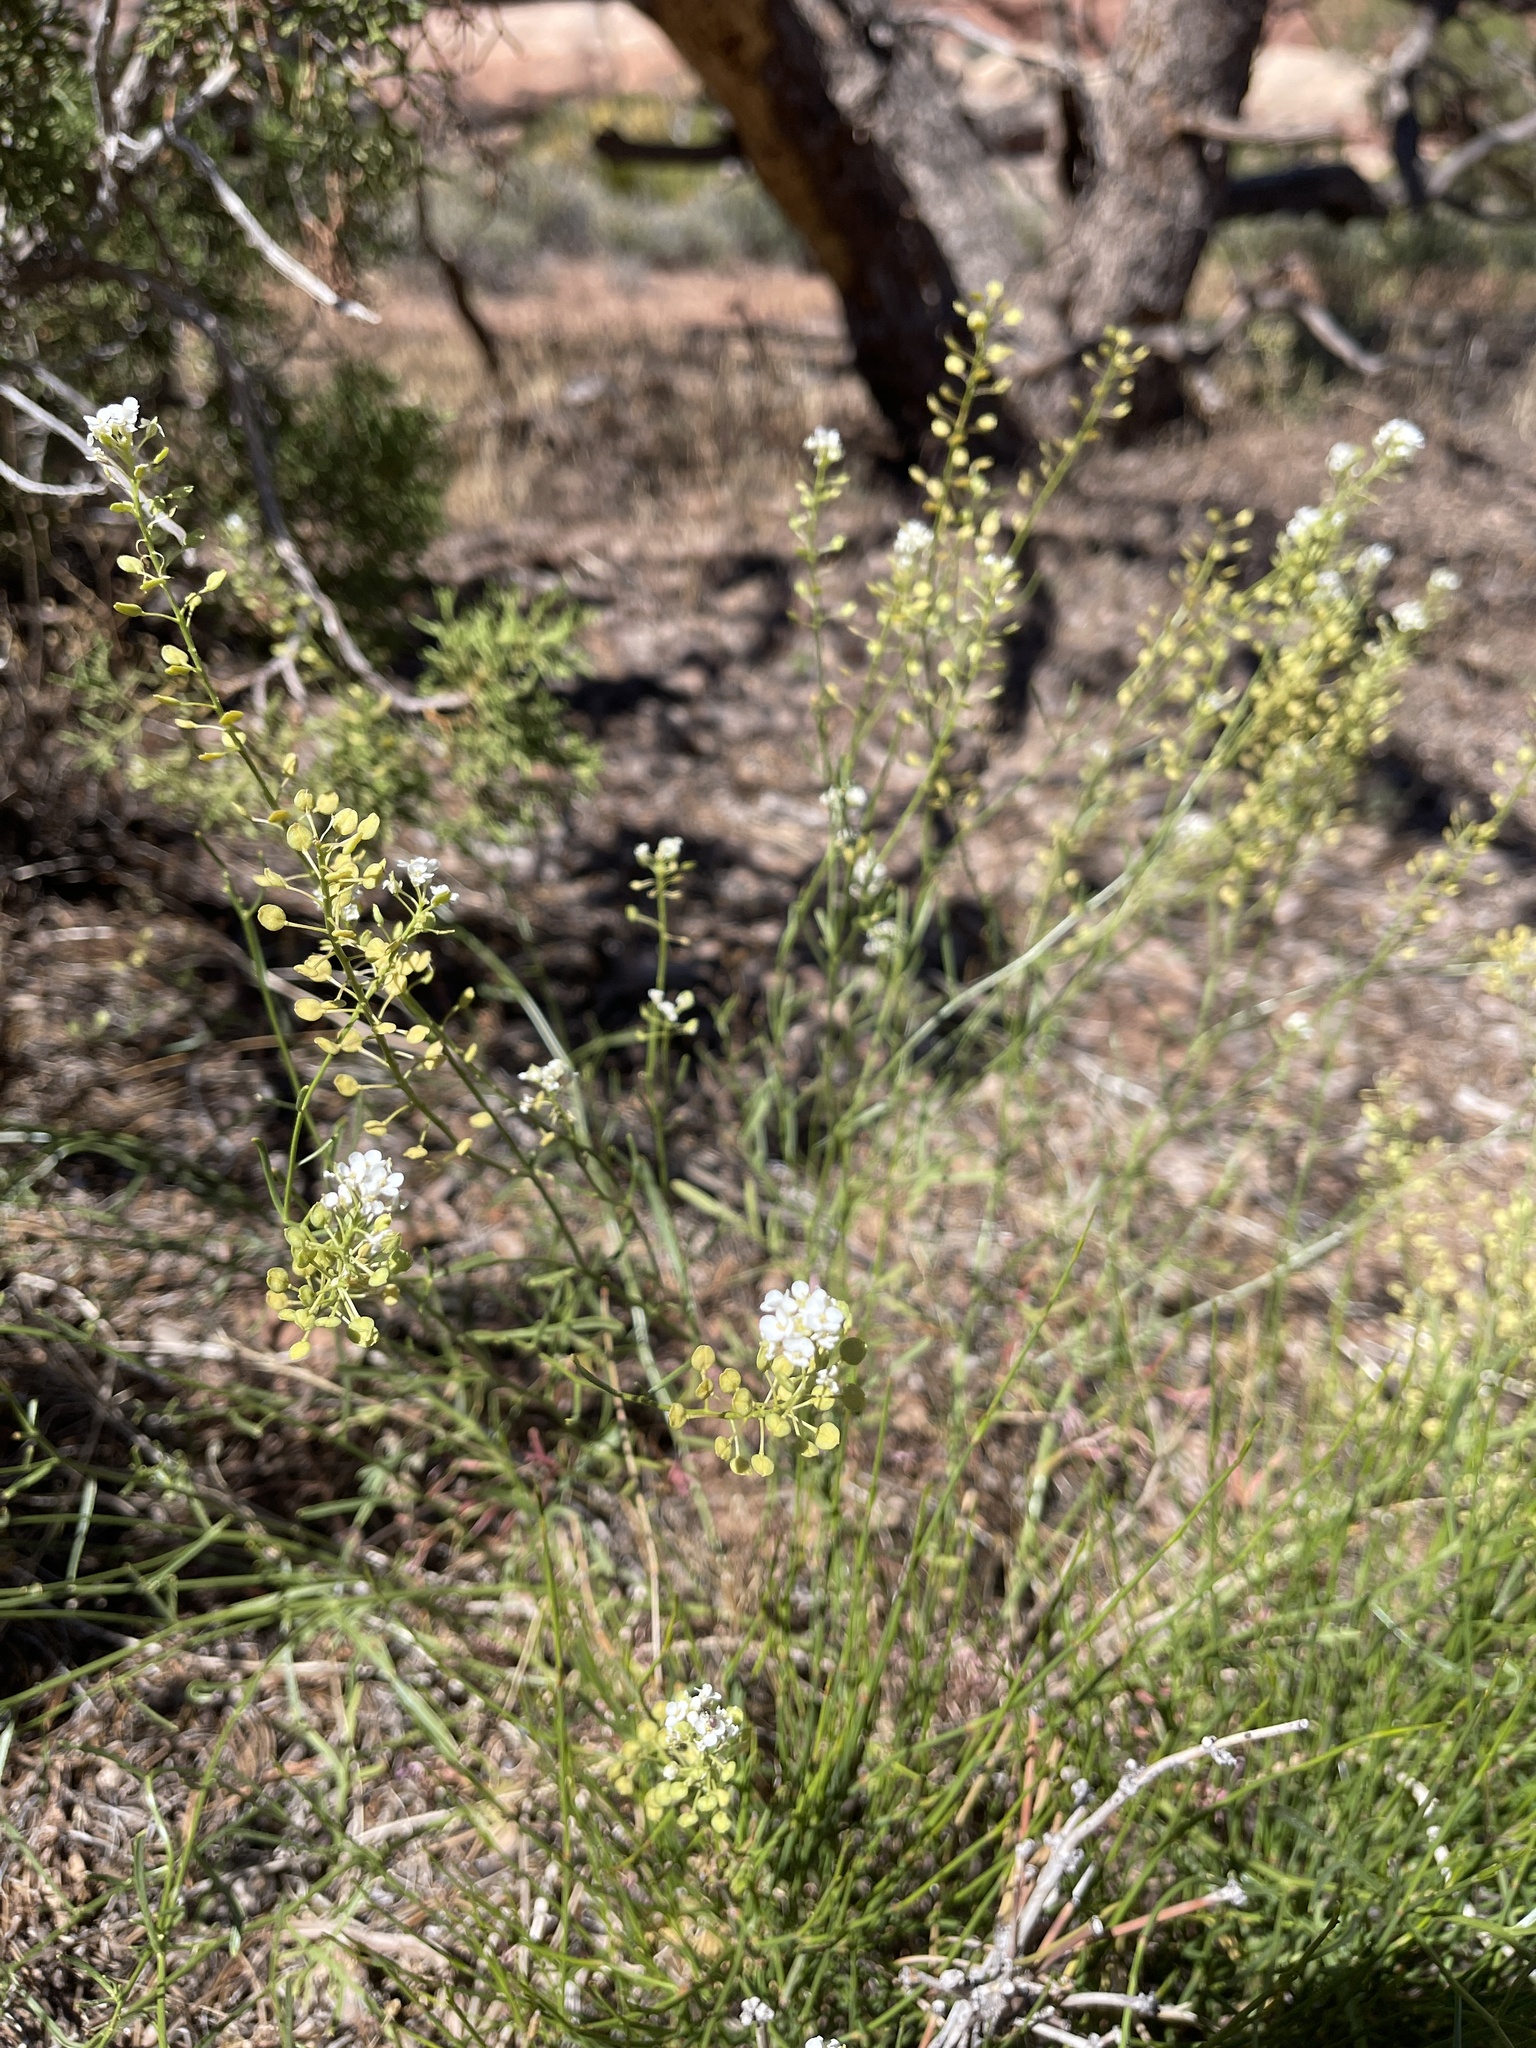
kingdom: Plantae
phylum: Tracheophyta
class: Magnoliopsida
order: Brassicales
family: Brassicaceae
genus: Lepidium
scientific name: Lepidium montanum
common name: Mountain pepperplant
